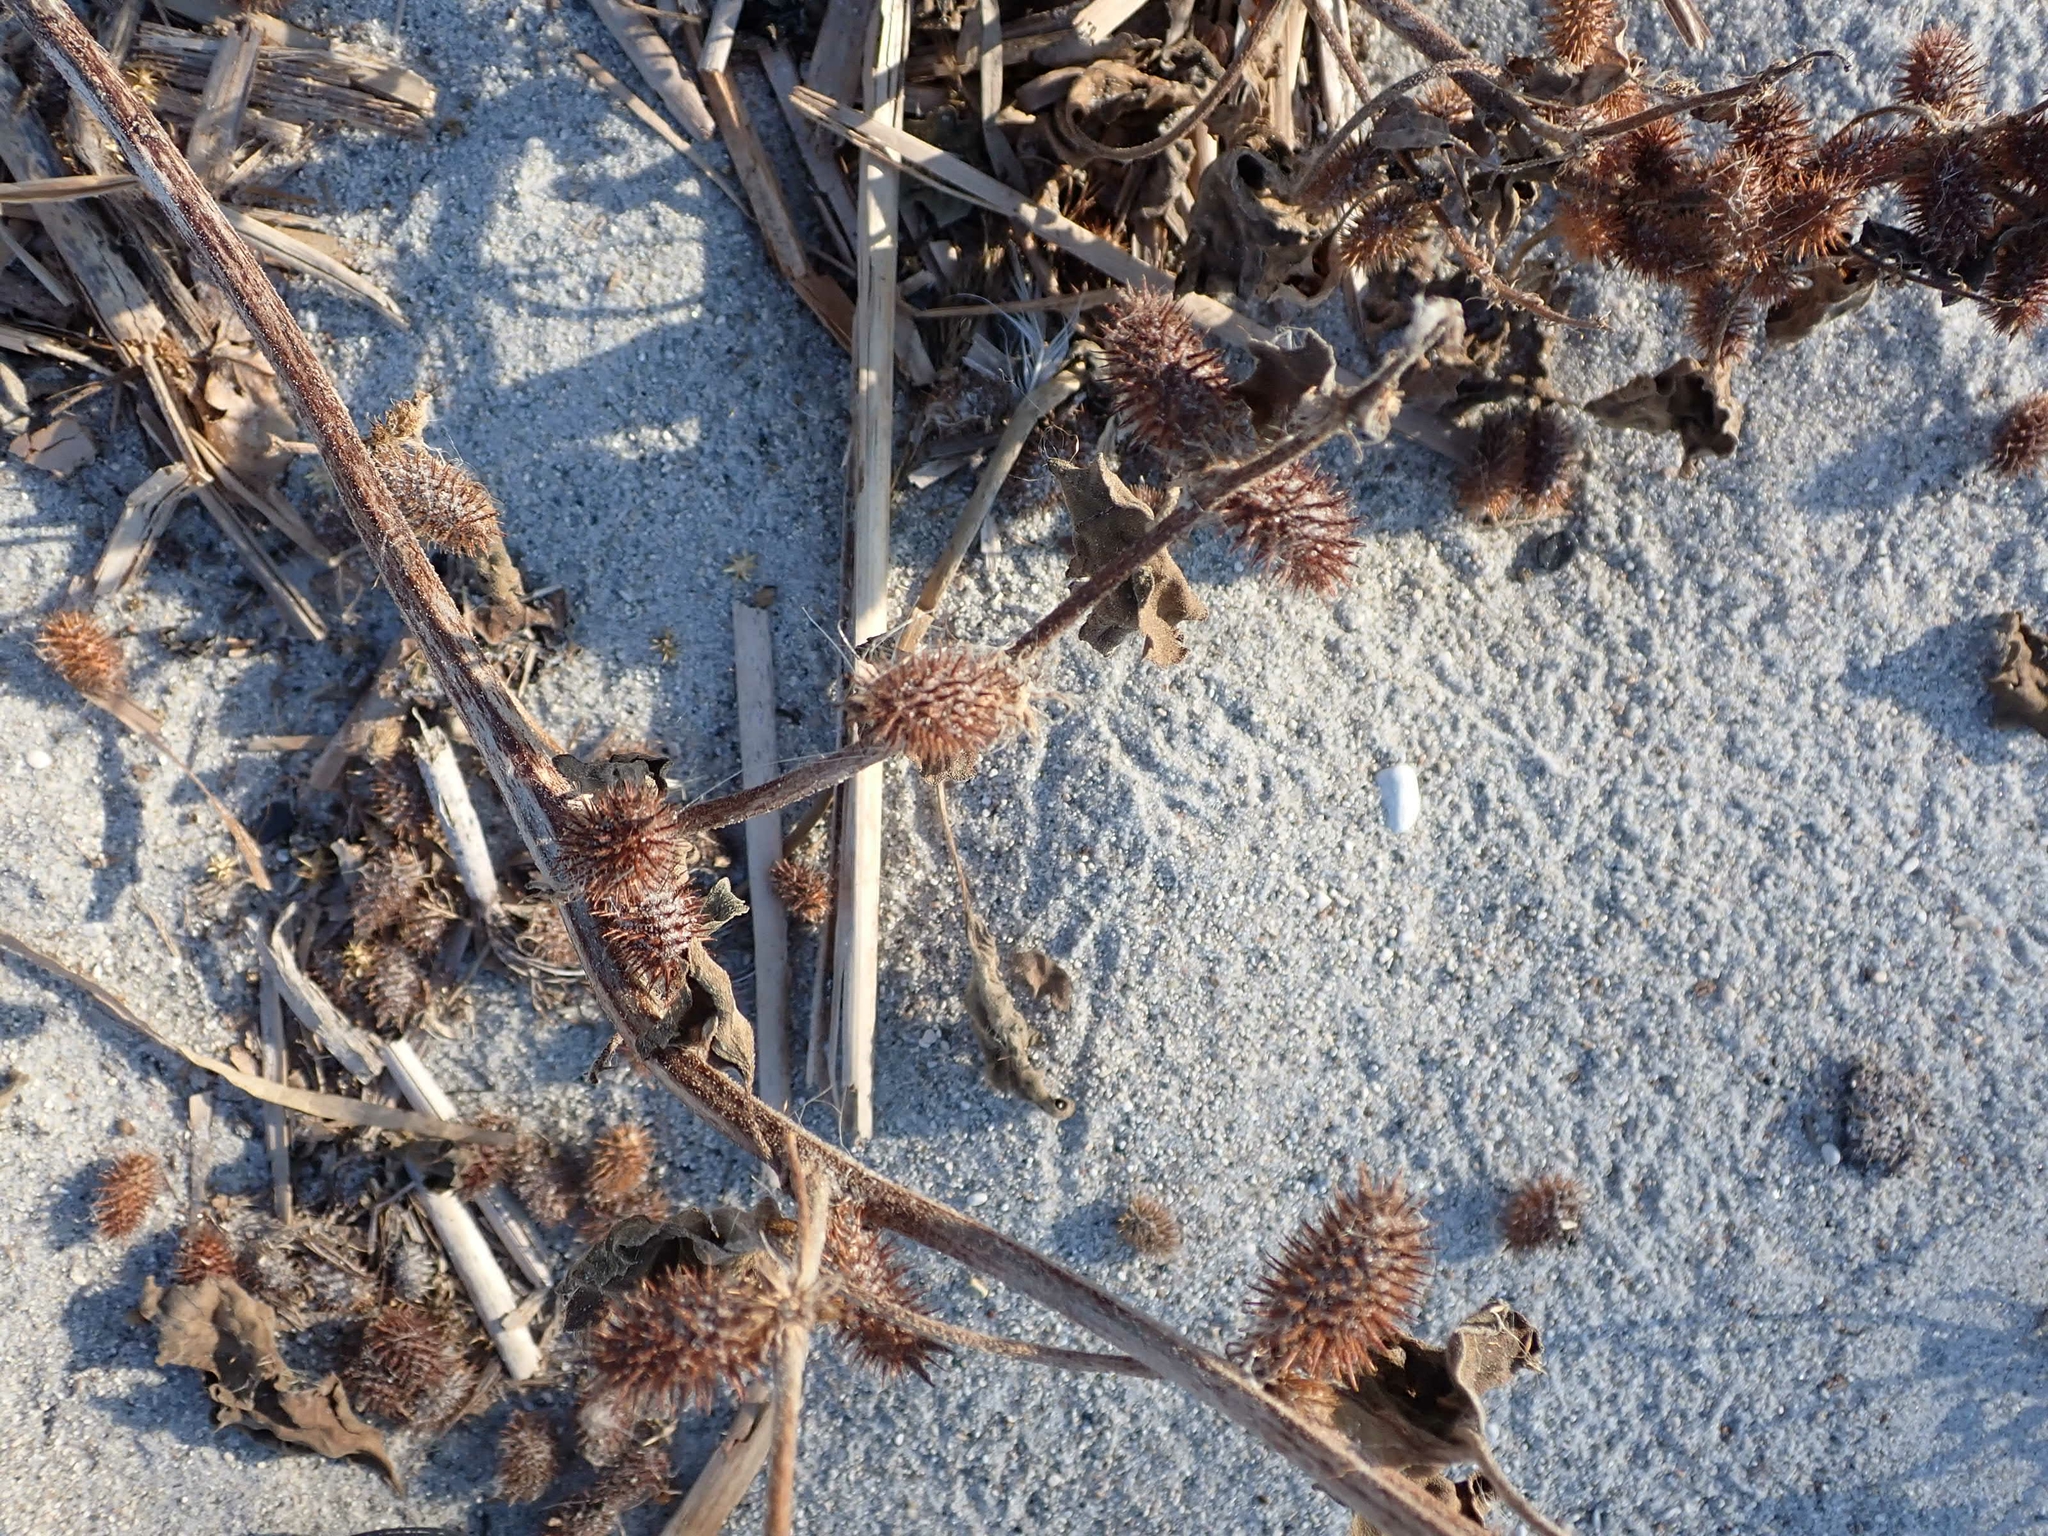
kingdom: Plantae
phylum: Tracheophyta
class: Magnoliopsida
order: Asterales
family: Asteraceae
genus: Xanthium
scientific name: Xanthium strumarium
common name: Rough cocklebur
